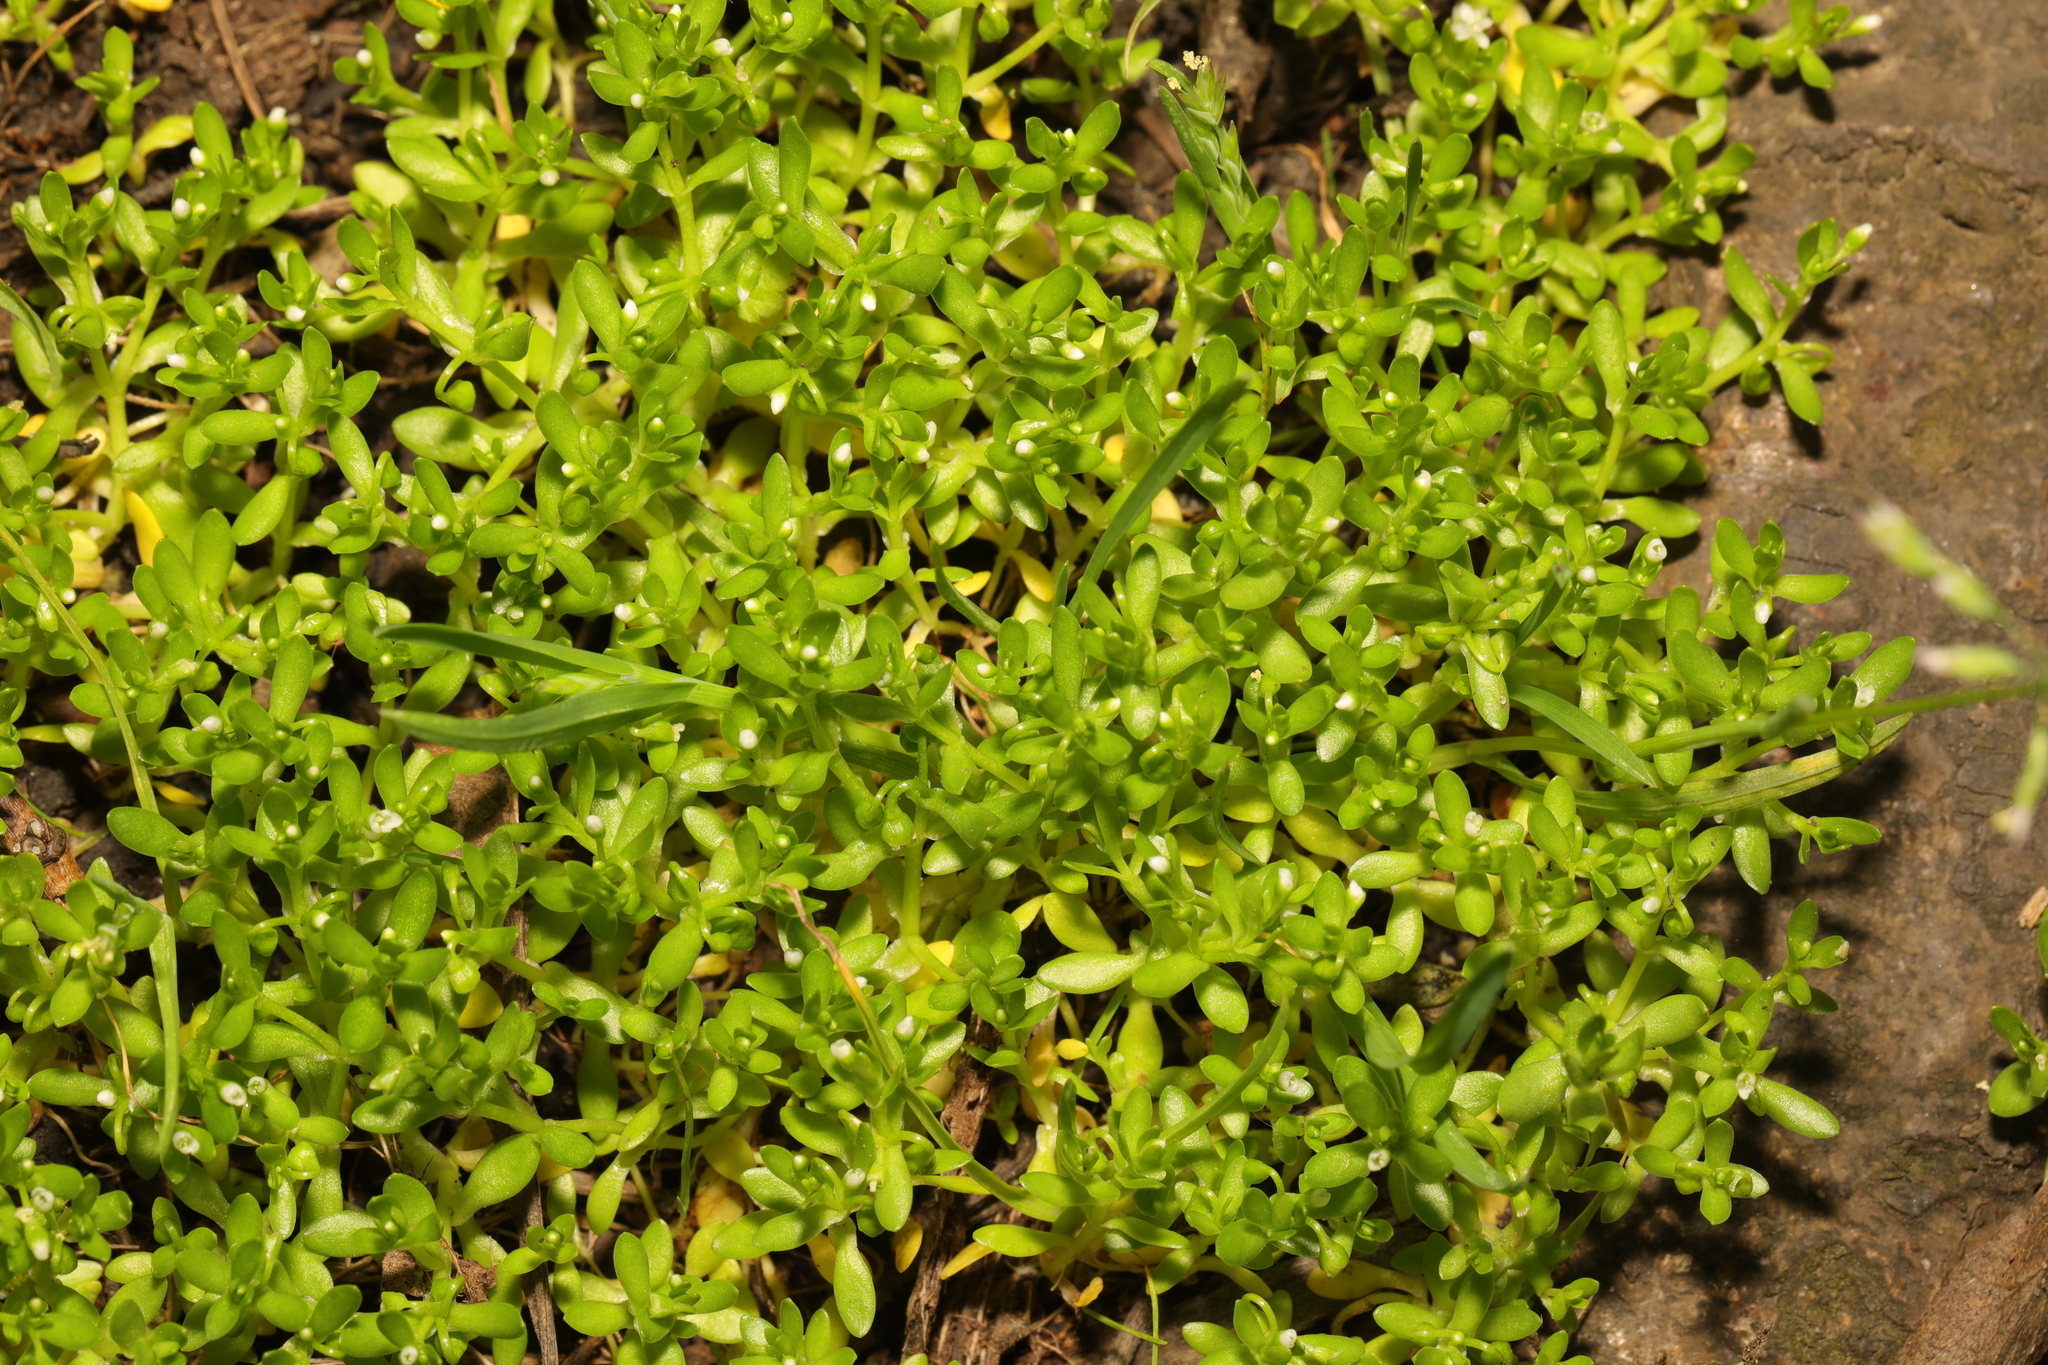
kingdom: Plantae
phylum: Tracheophyta
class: Magnoliopsida
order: Caryophyllales
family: Montiaceae
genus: Montia
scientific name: Montia fontana
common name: Blinks
